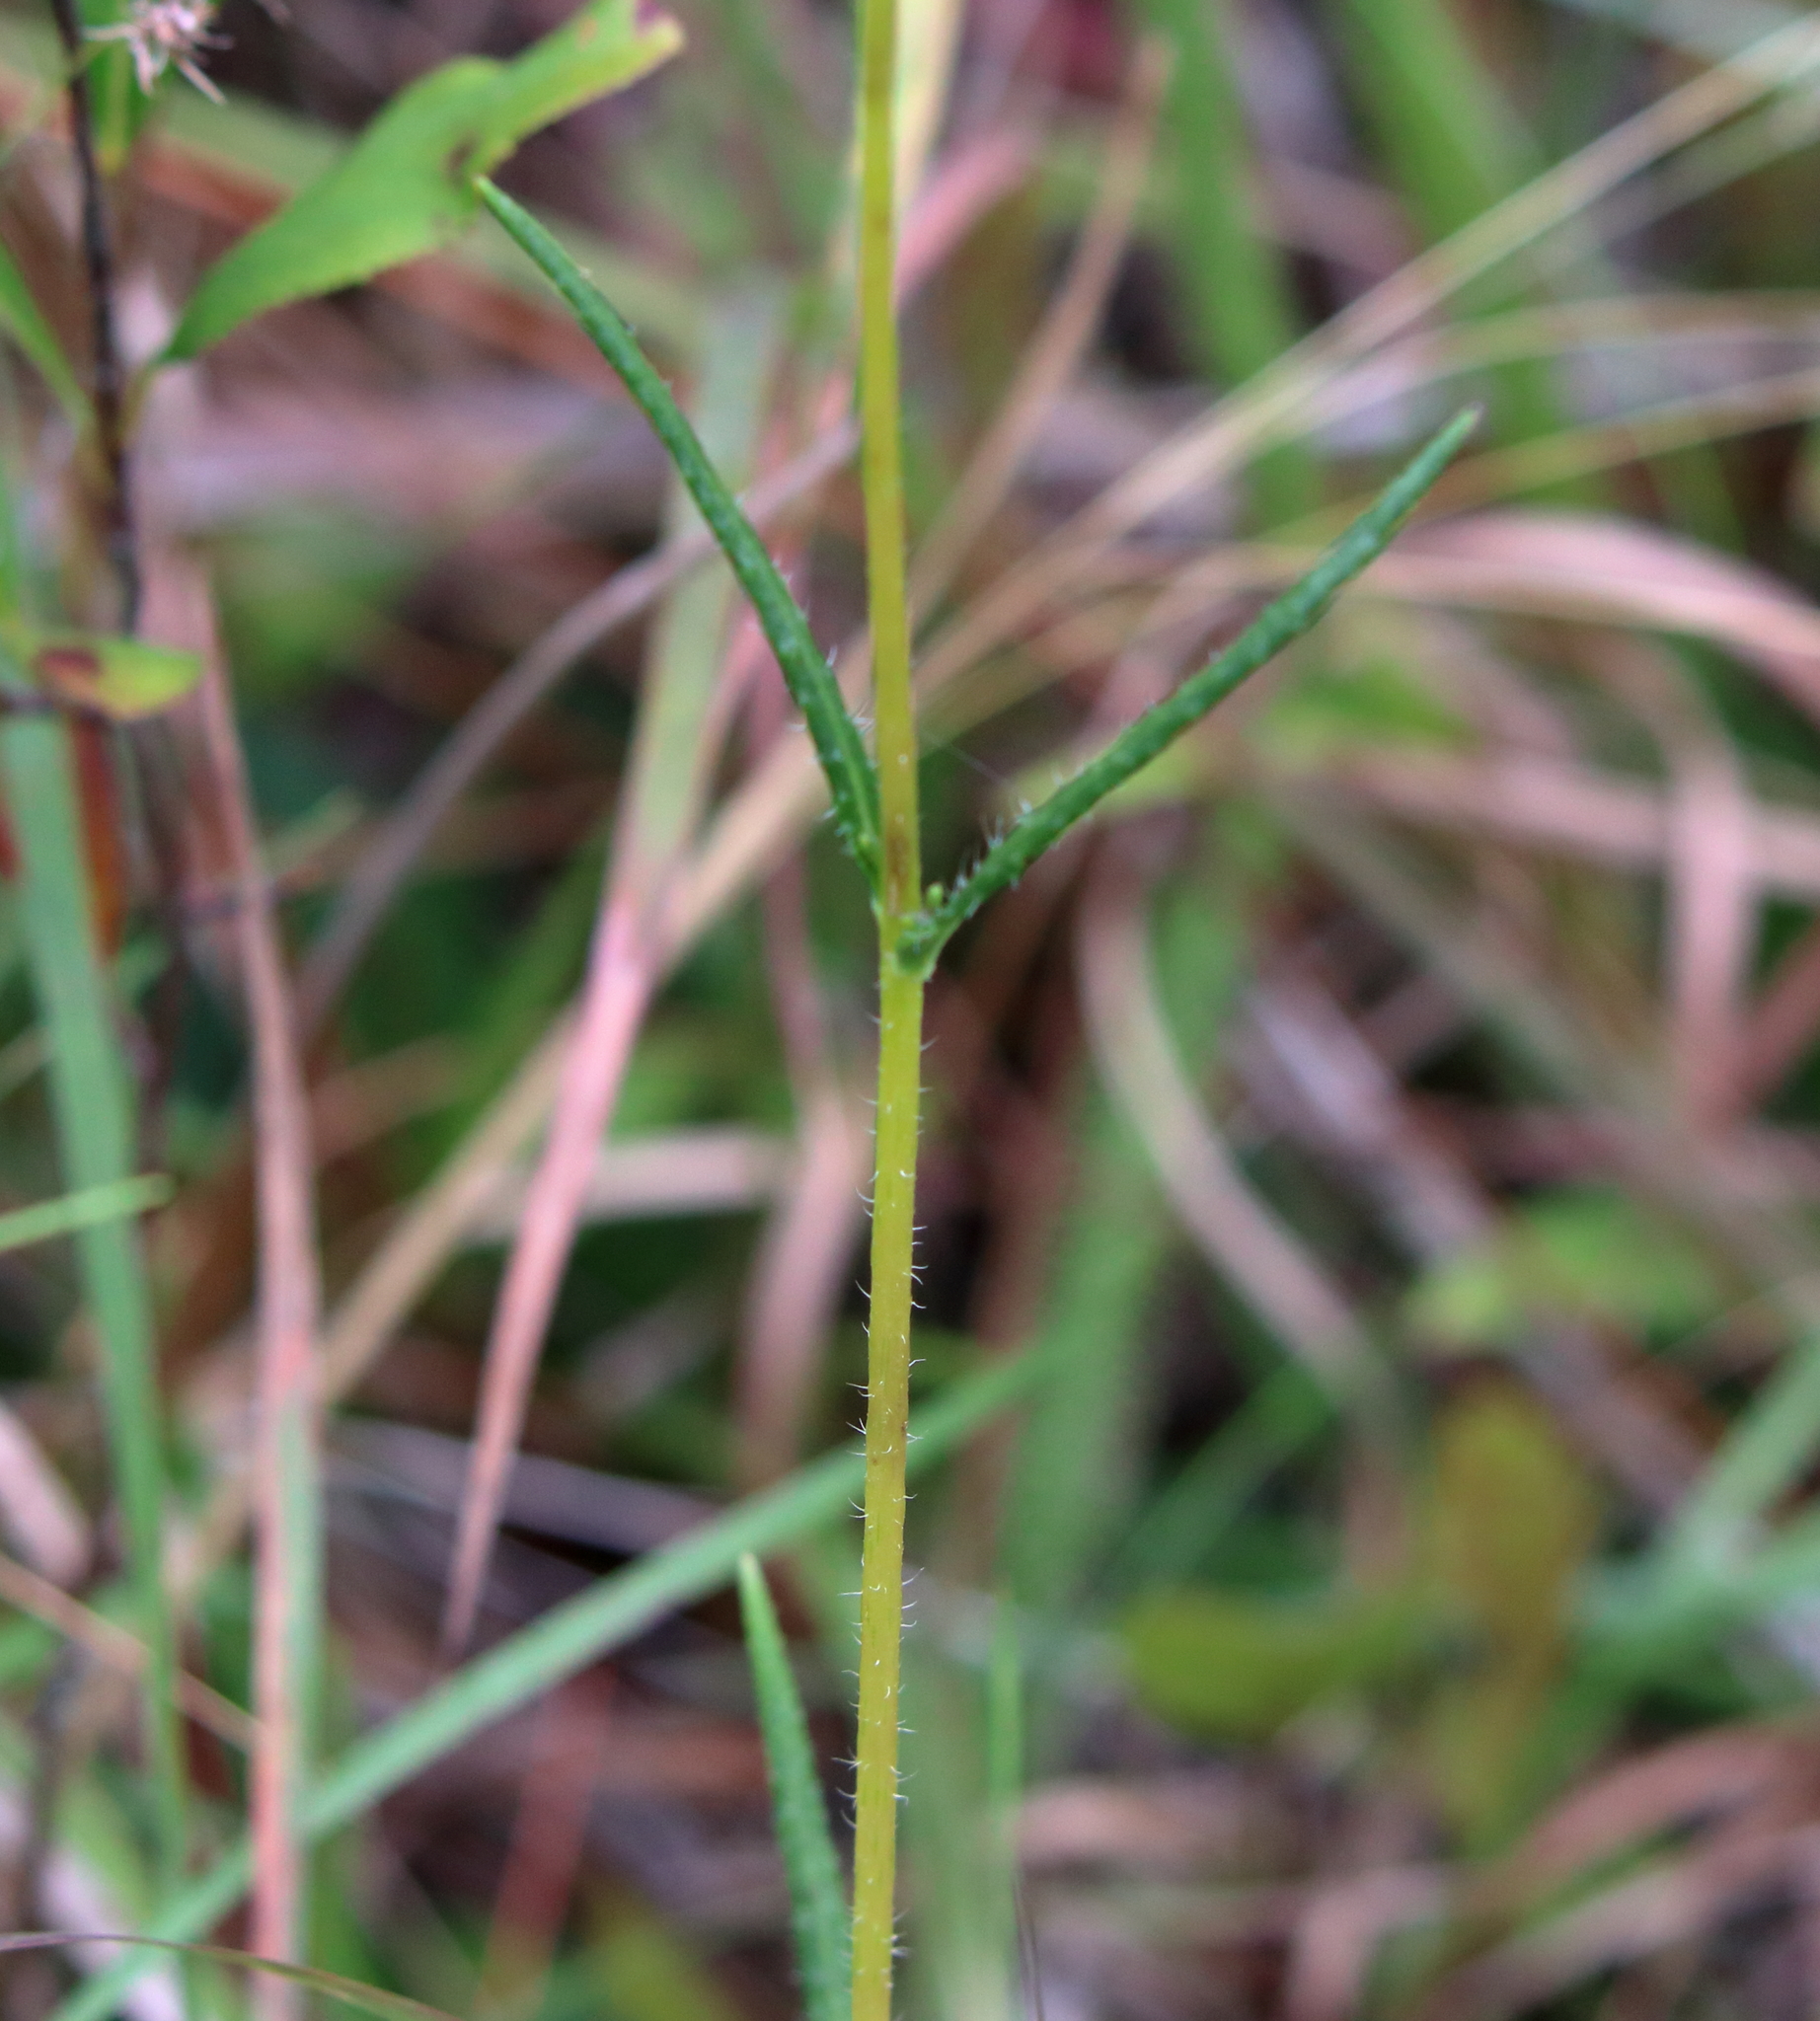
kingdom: Plantae
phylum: Tracheophyta
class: Magnoliopsida
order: Asterales
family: Asteraceae
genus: Helianthus
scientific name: Helianthus heterophyllus
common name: Wetland sunflower
